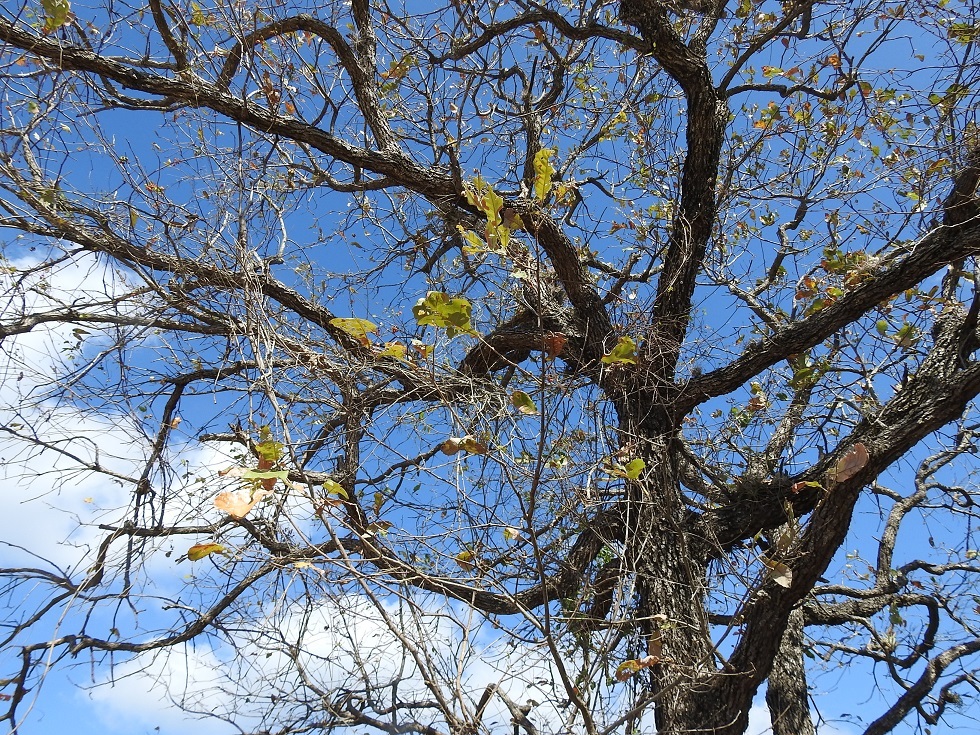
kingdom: Plantae
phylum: Tracheophyta
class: Magnoliopsida
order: Fagales
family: Fagaceae
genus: Quercus
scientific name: Quercus magnoliifolia
